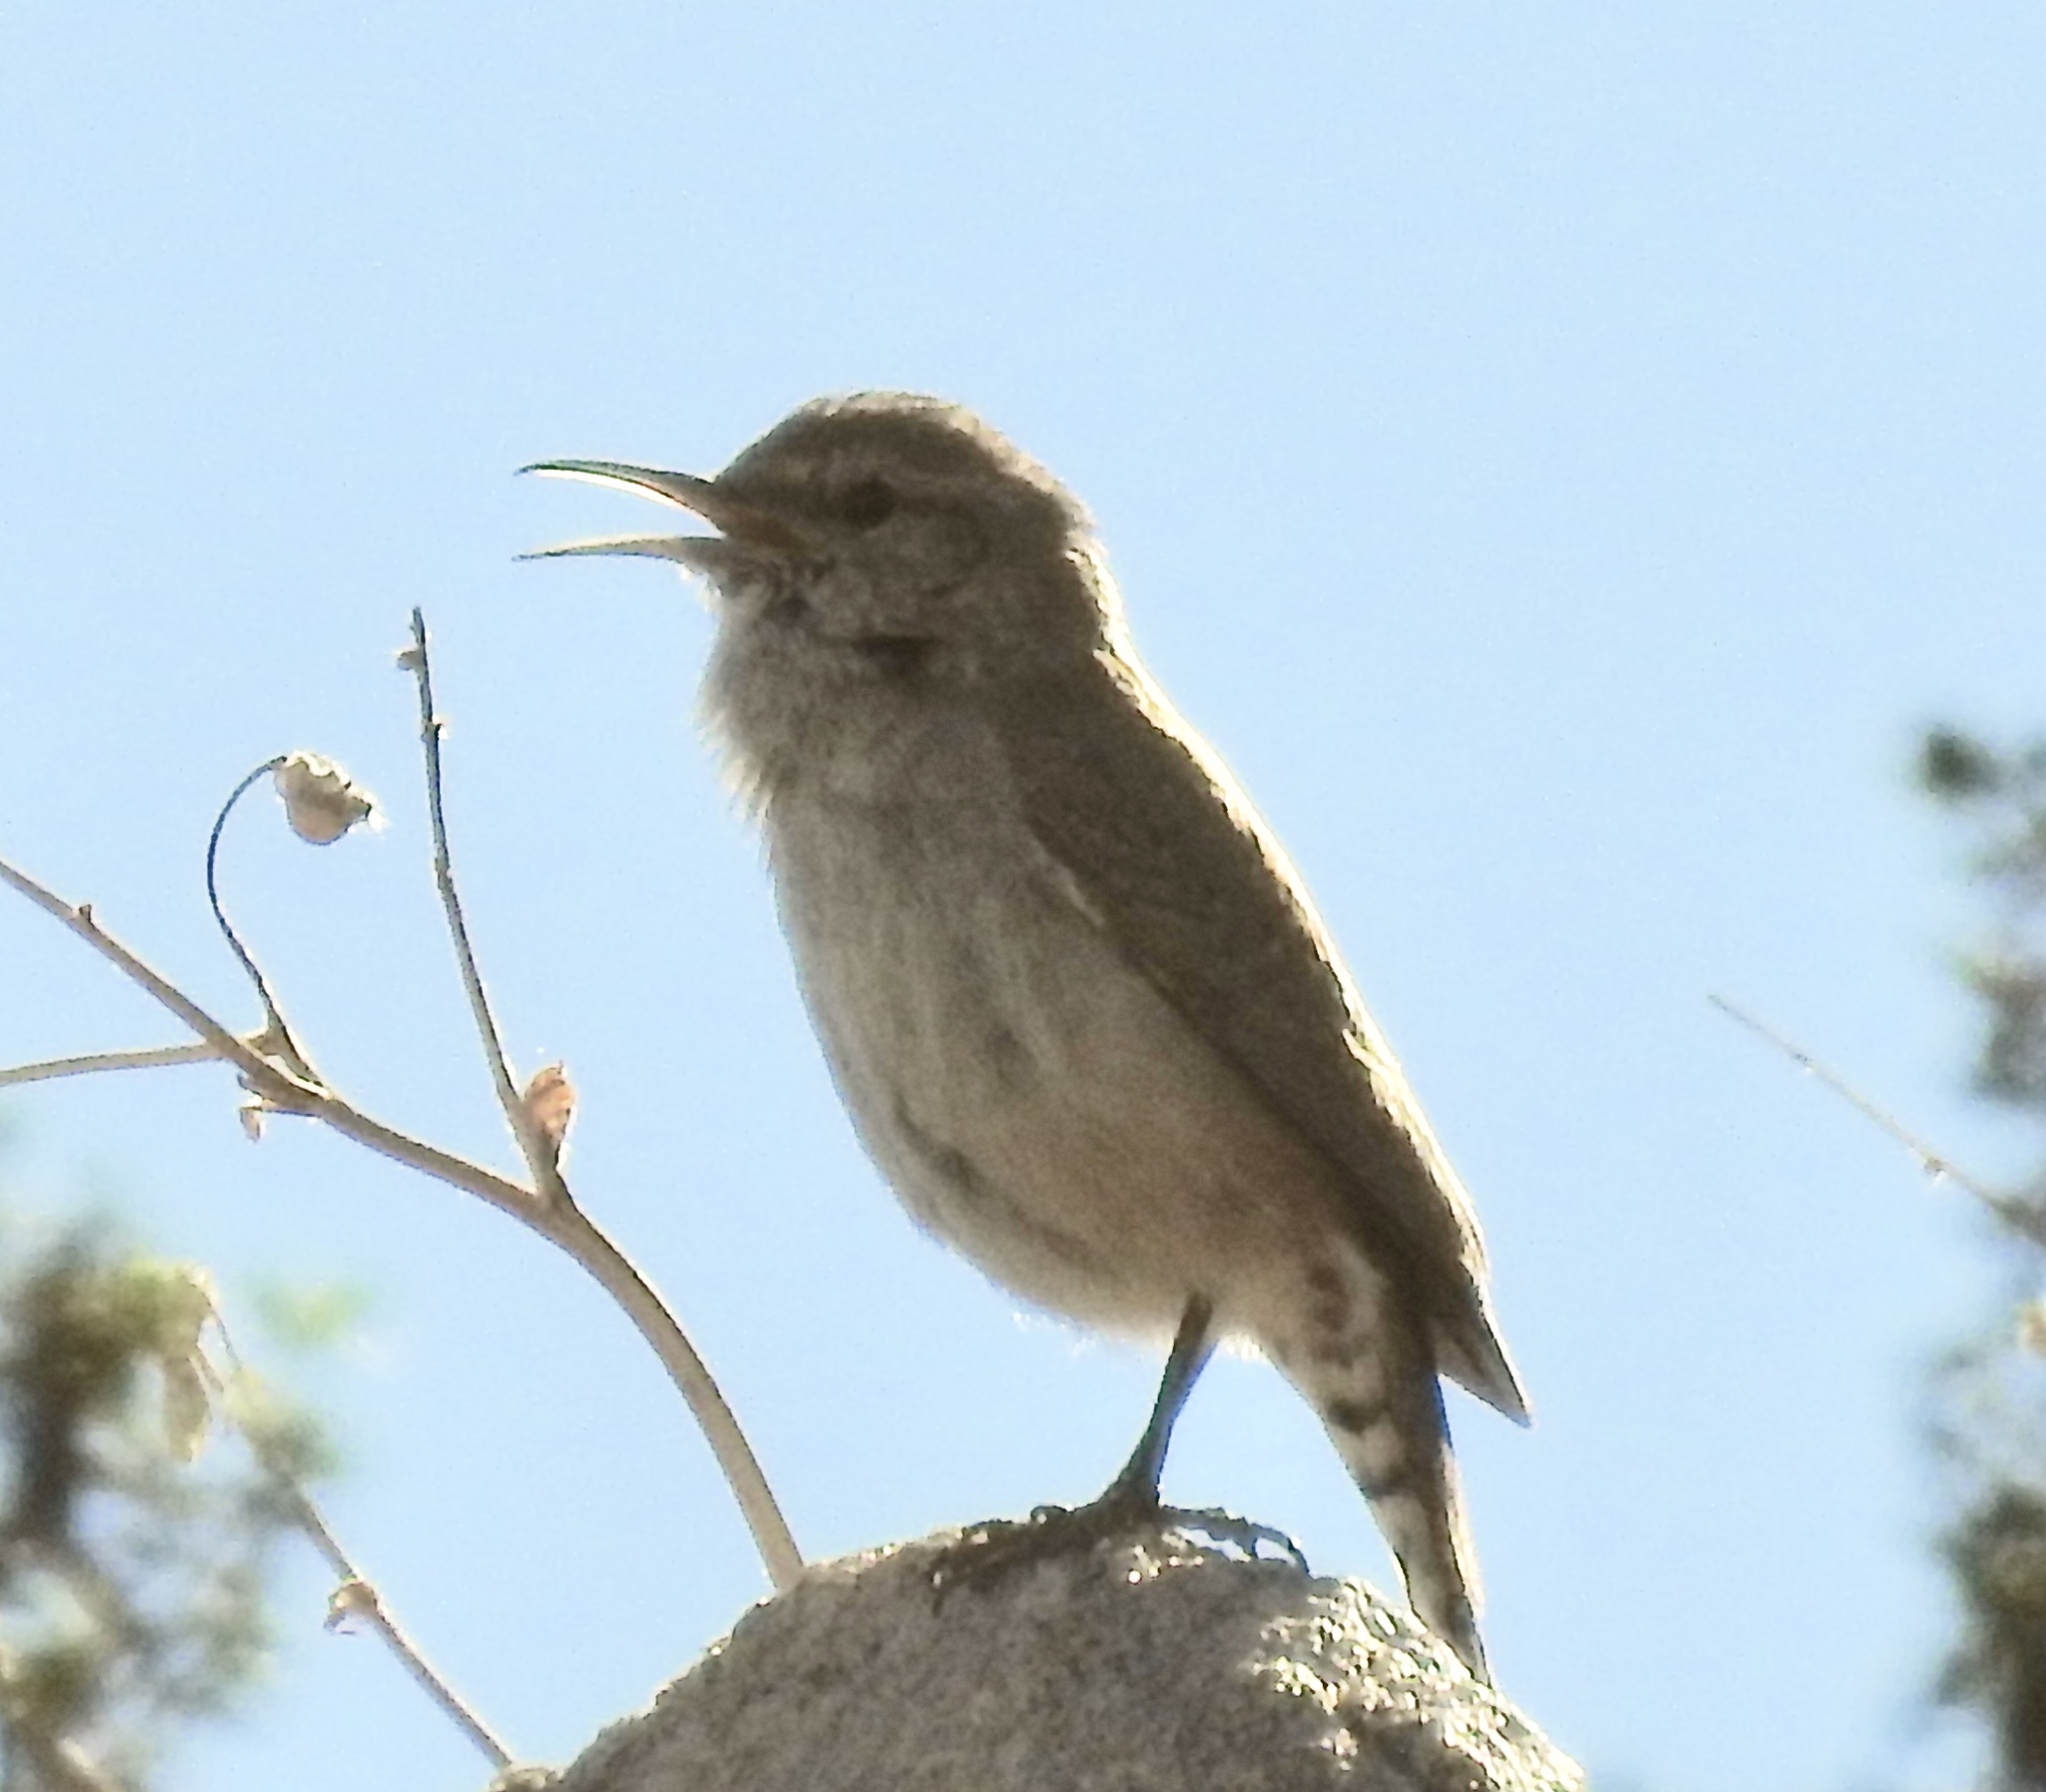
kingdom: Animalia
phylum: Chordata
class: Aves
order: Passeriformes
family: Troglodytidae
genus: Salpinctes
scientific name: Salpinctes obsoletus
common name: Rock wren
